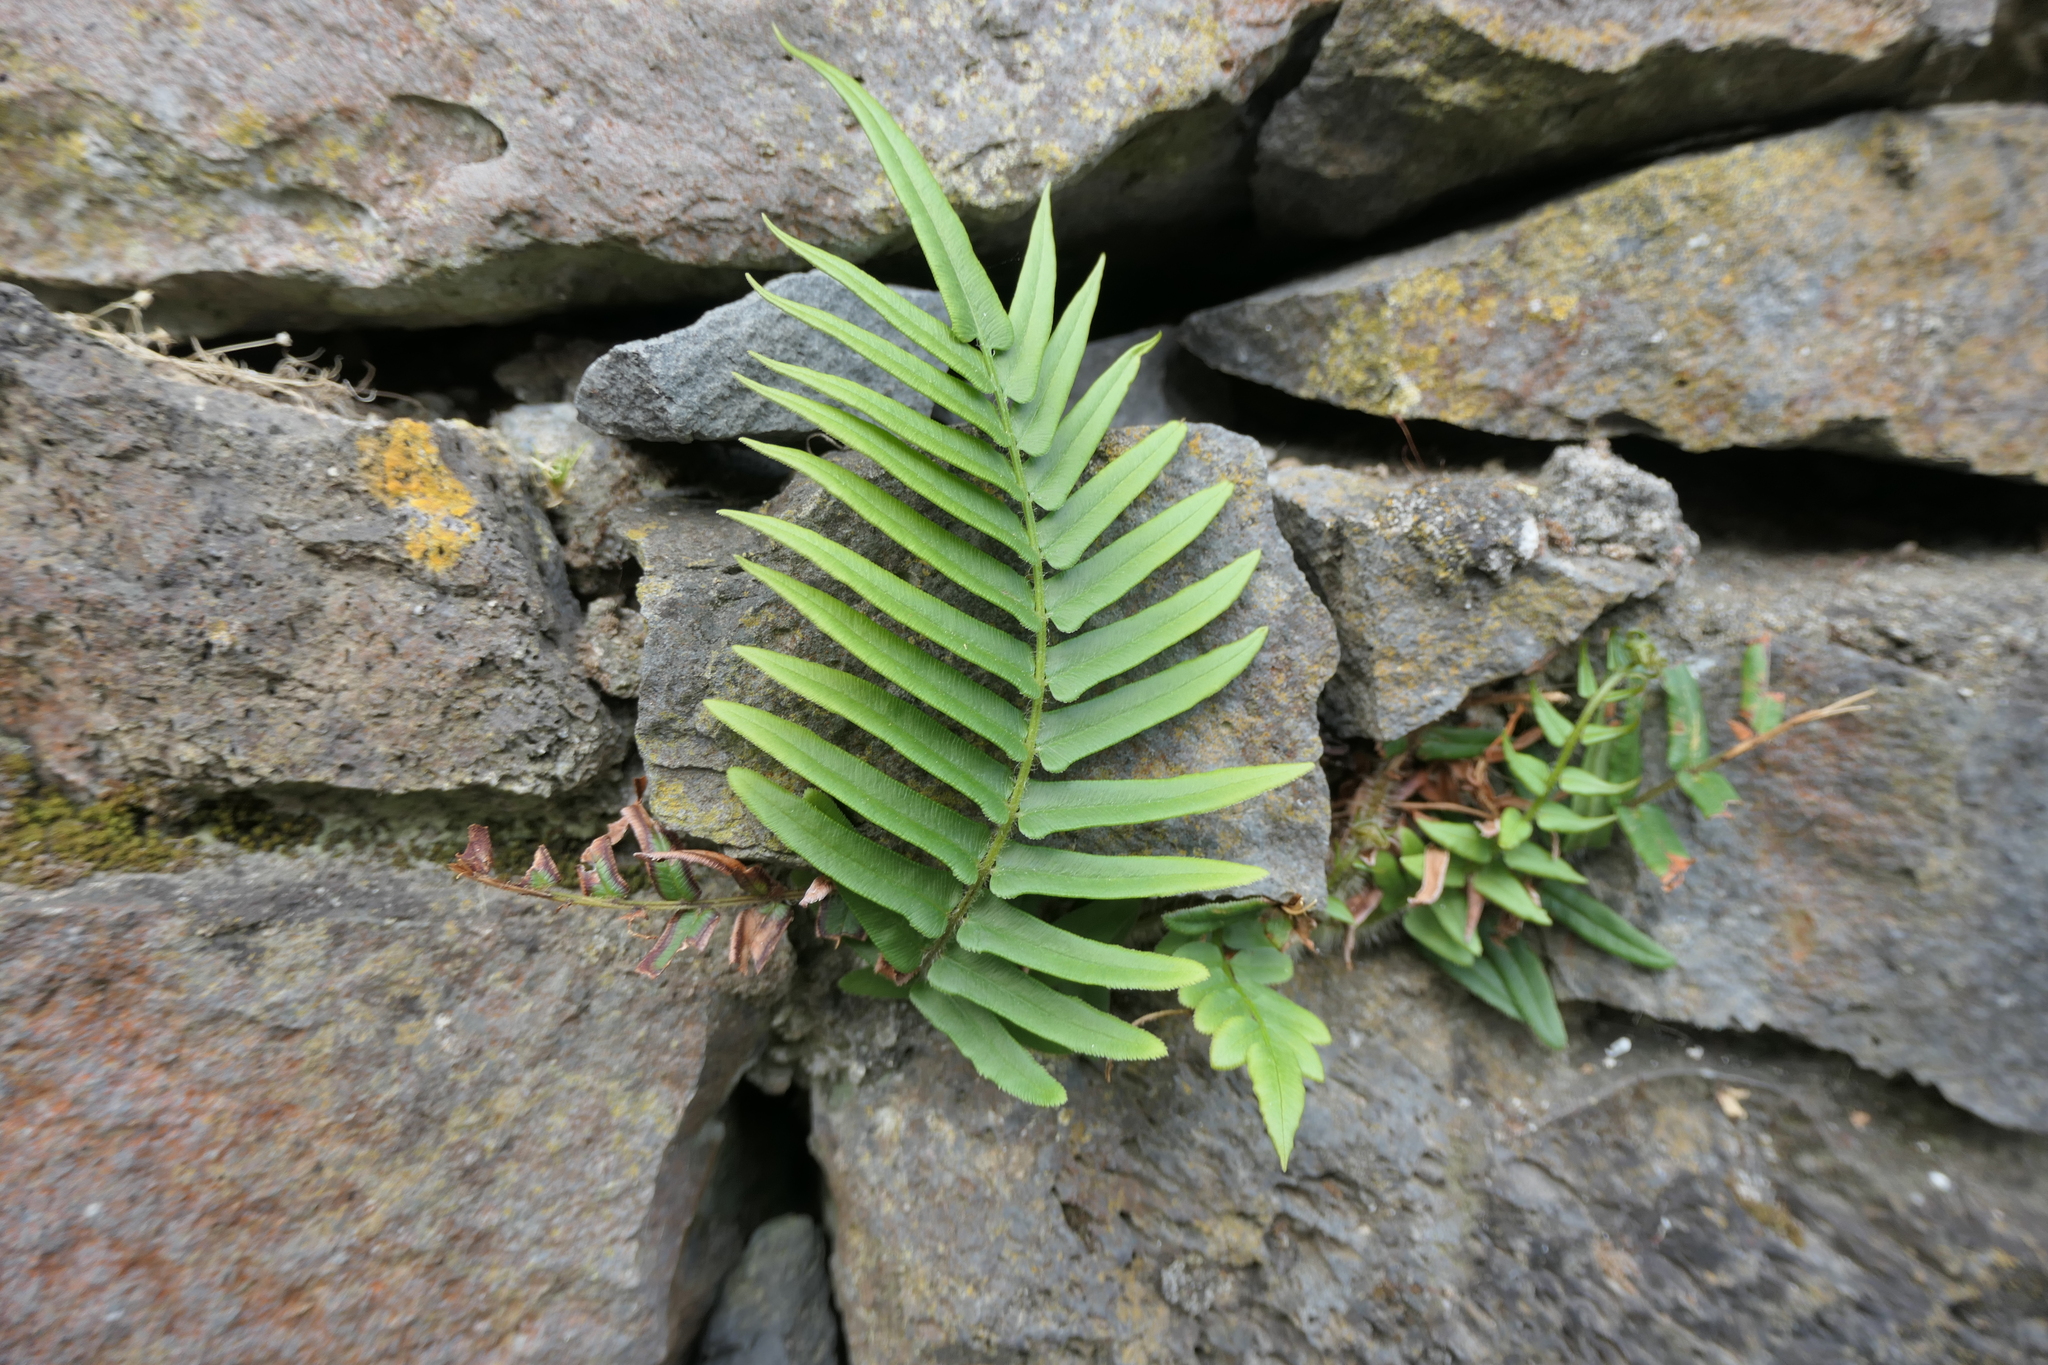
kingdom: Plantae
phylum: Tracheophyta
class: Polypodiopsida
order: Polypodiales
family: Pteridaceae
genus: Pteris
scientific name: Pteris vittata
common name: Ladder brake
